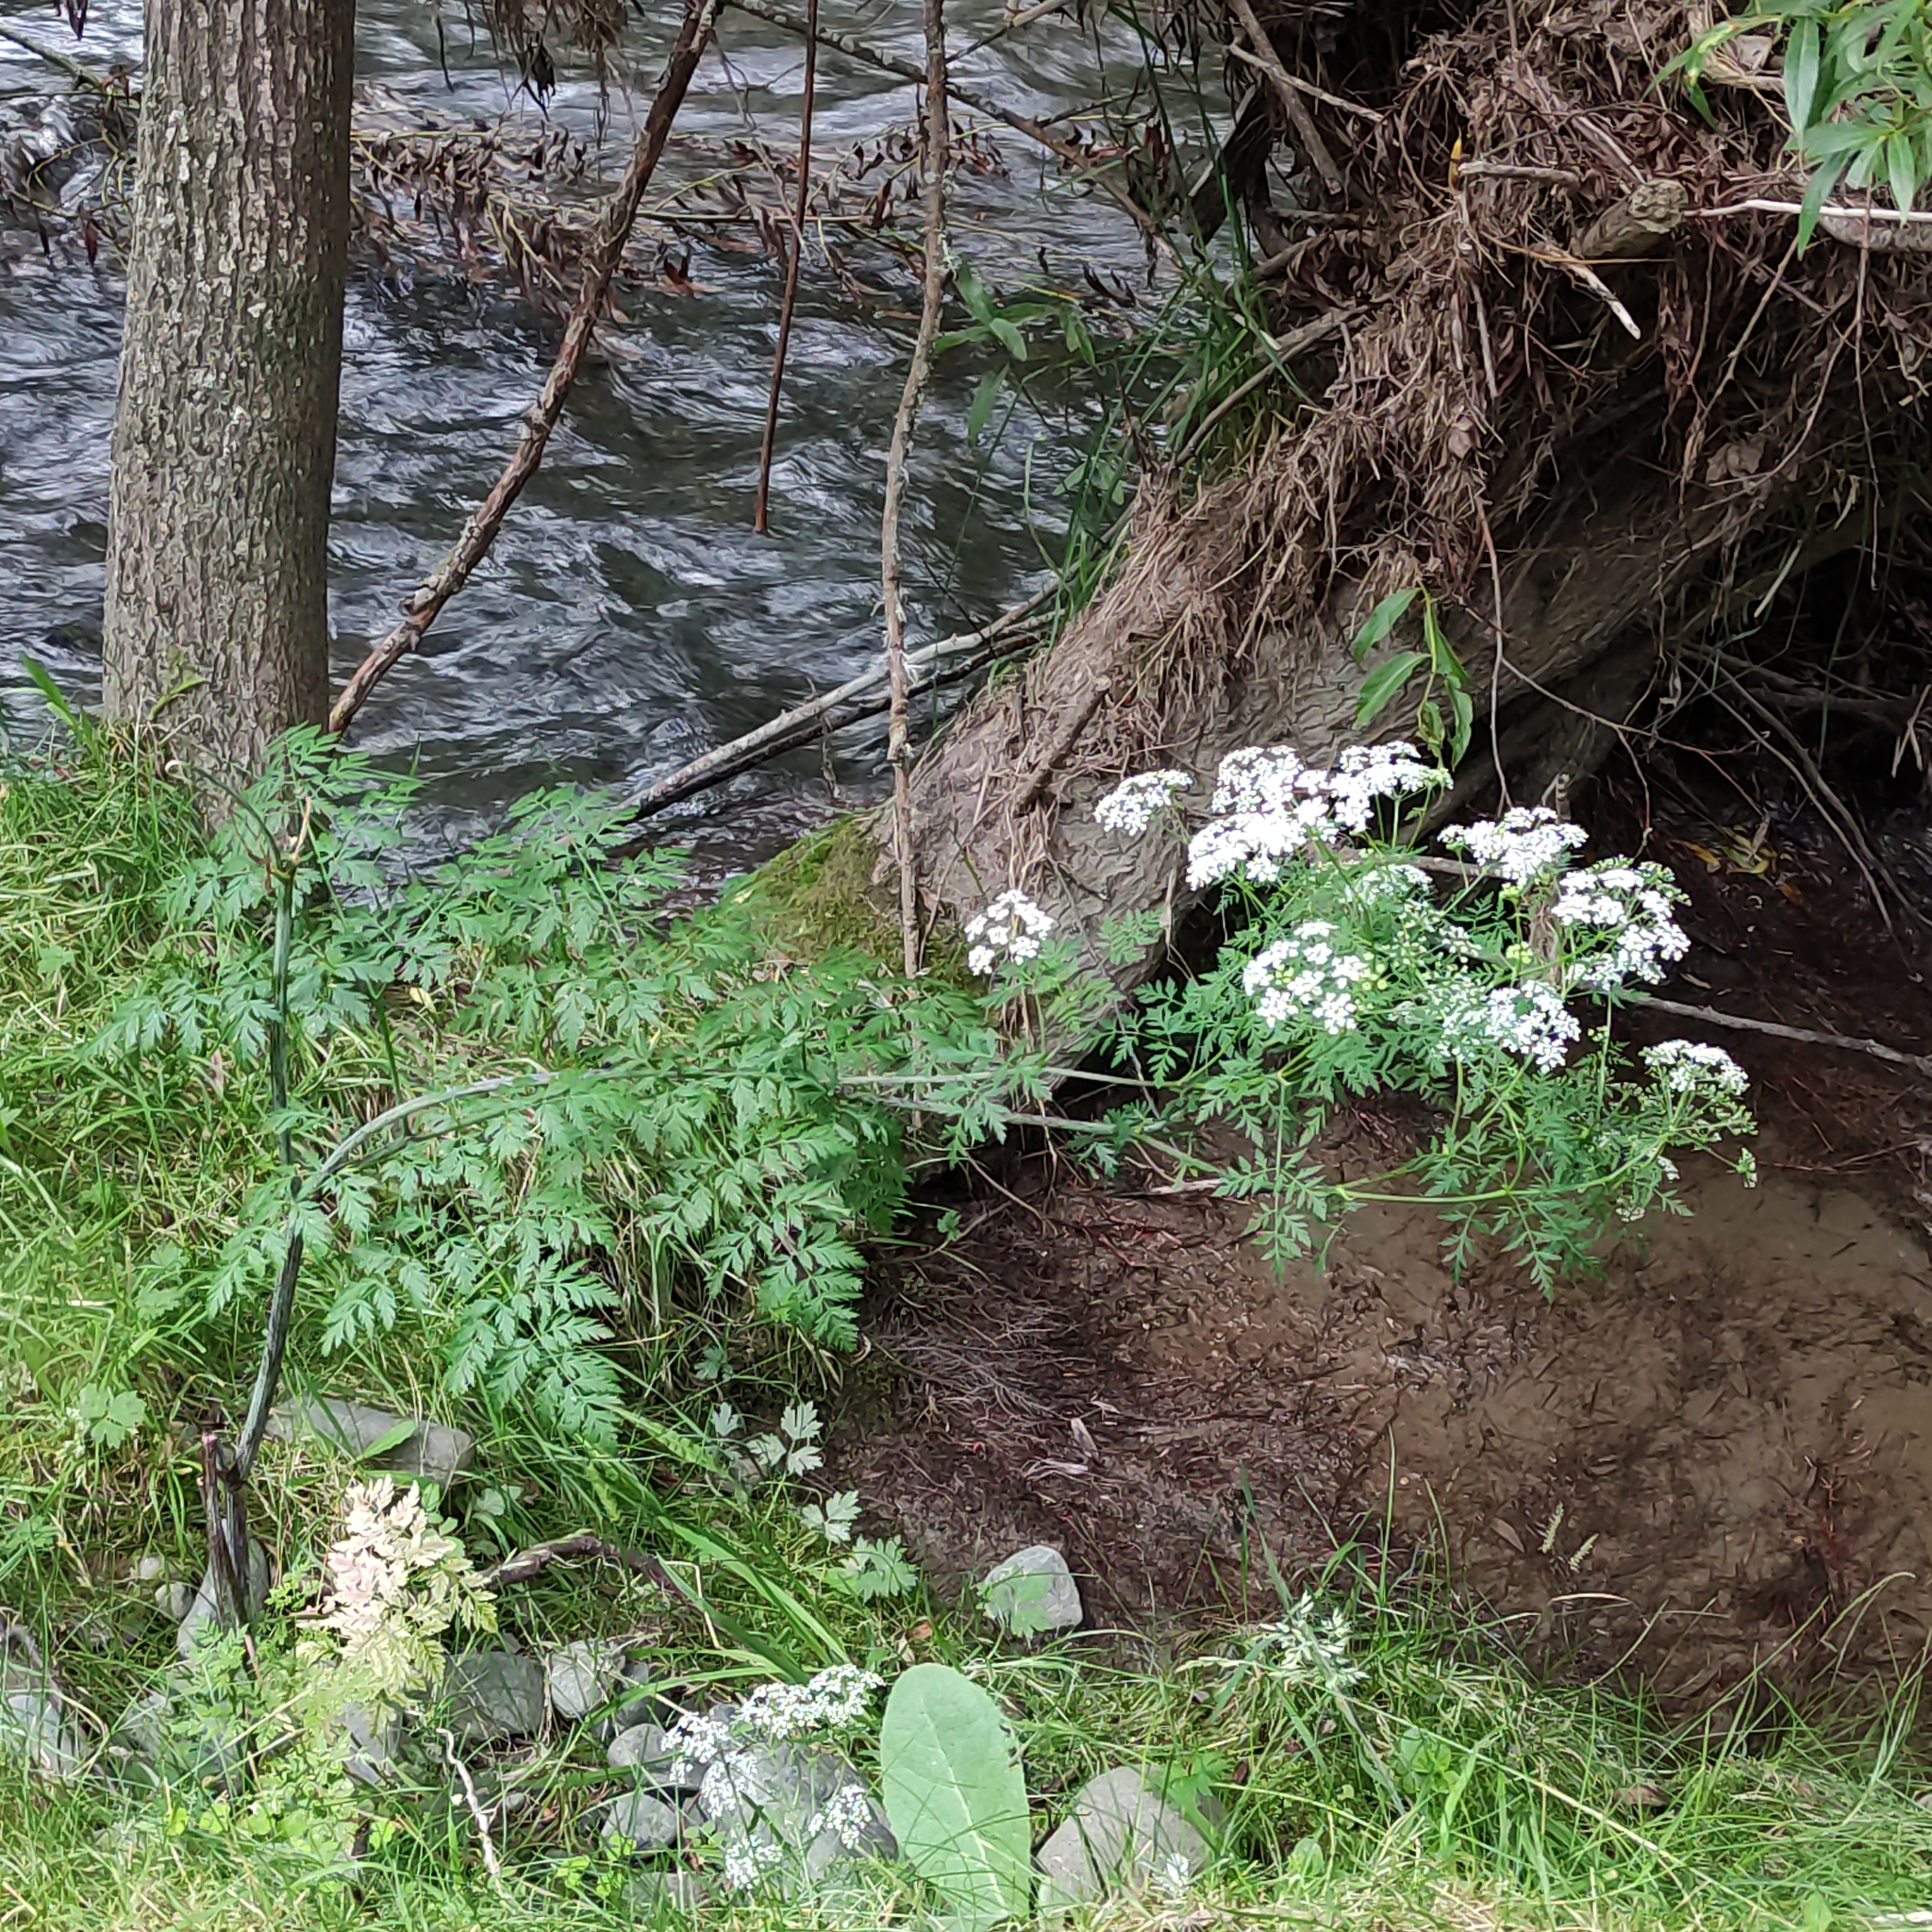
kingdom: Plantae
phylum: Tracheophyta
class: Magnoliopsida
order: Apiales
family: Apiaceae
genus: Conium
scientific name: Conium maculatum
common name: Hemlock
